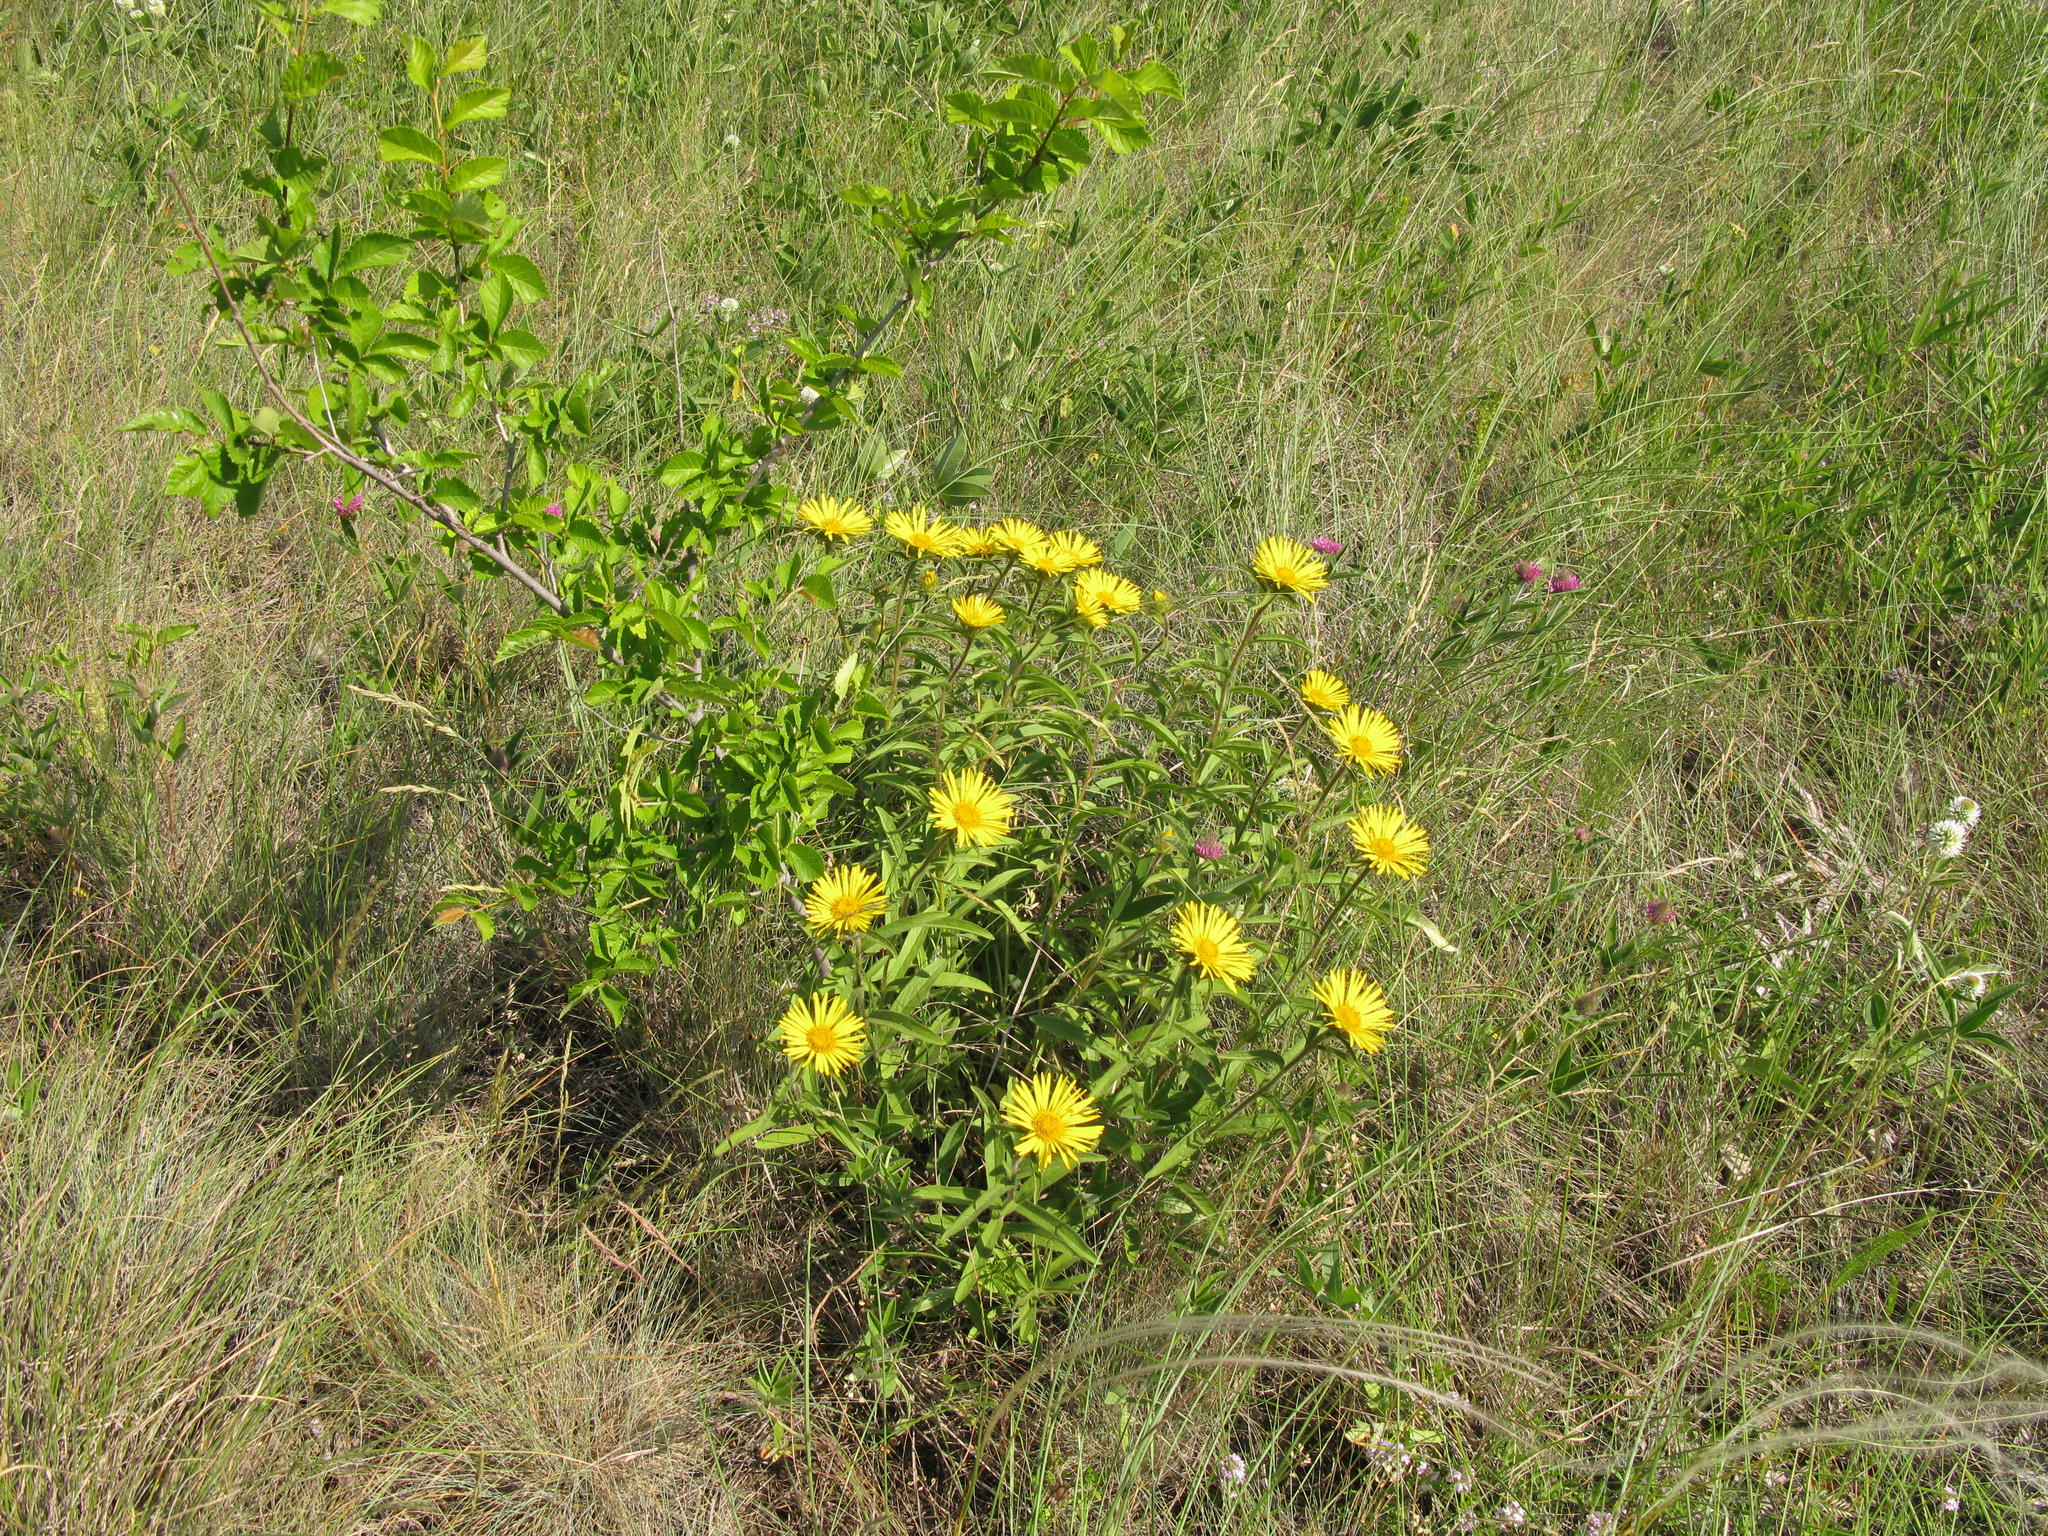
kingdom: Plantae
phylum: Tracheophyta
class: Magnoliopsida
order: Asterales
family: Asteraceae
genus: Pentanema
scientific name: Pentanema salicinum
